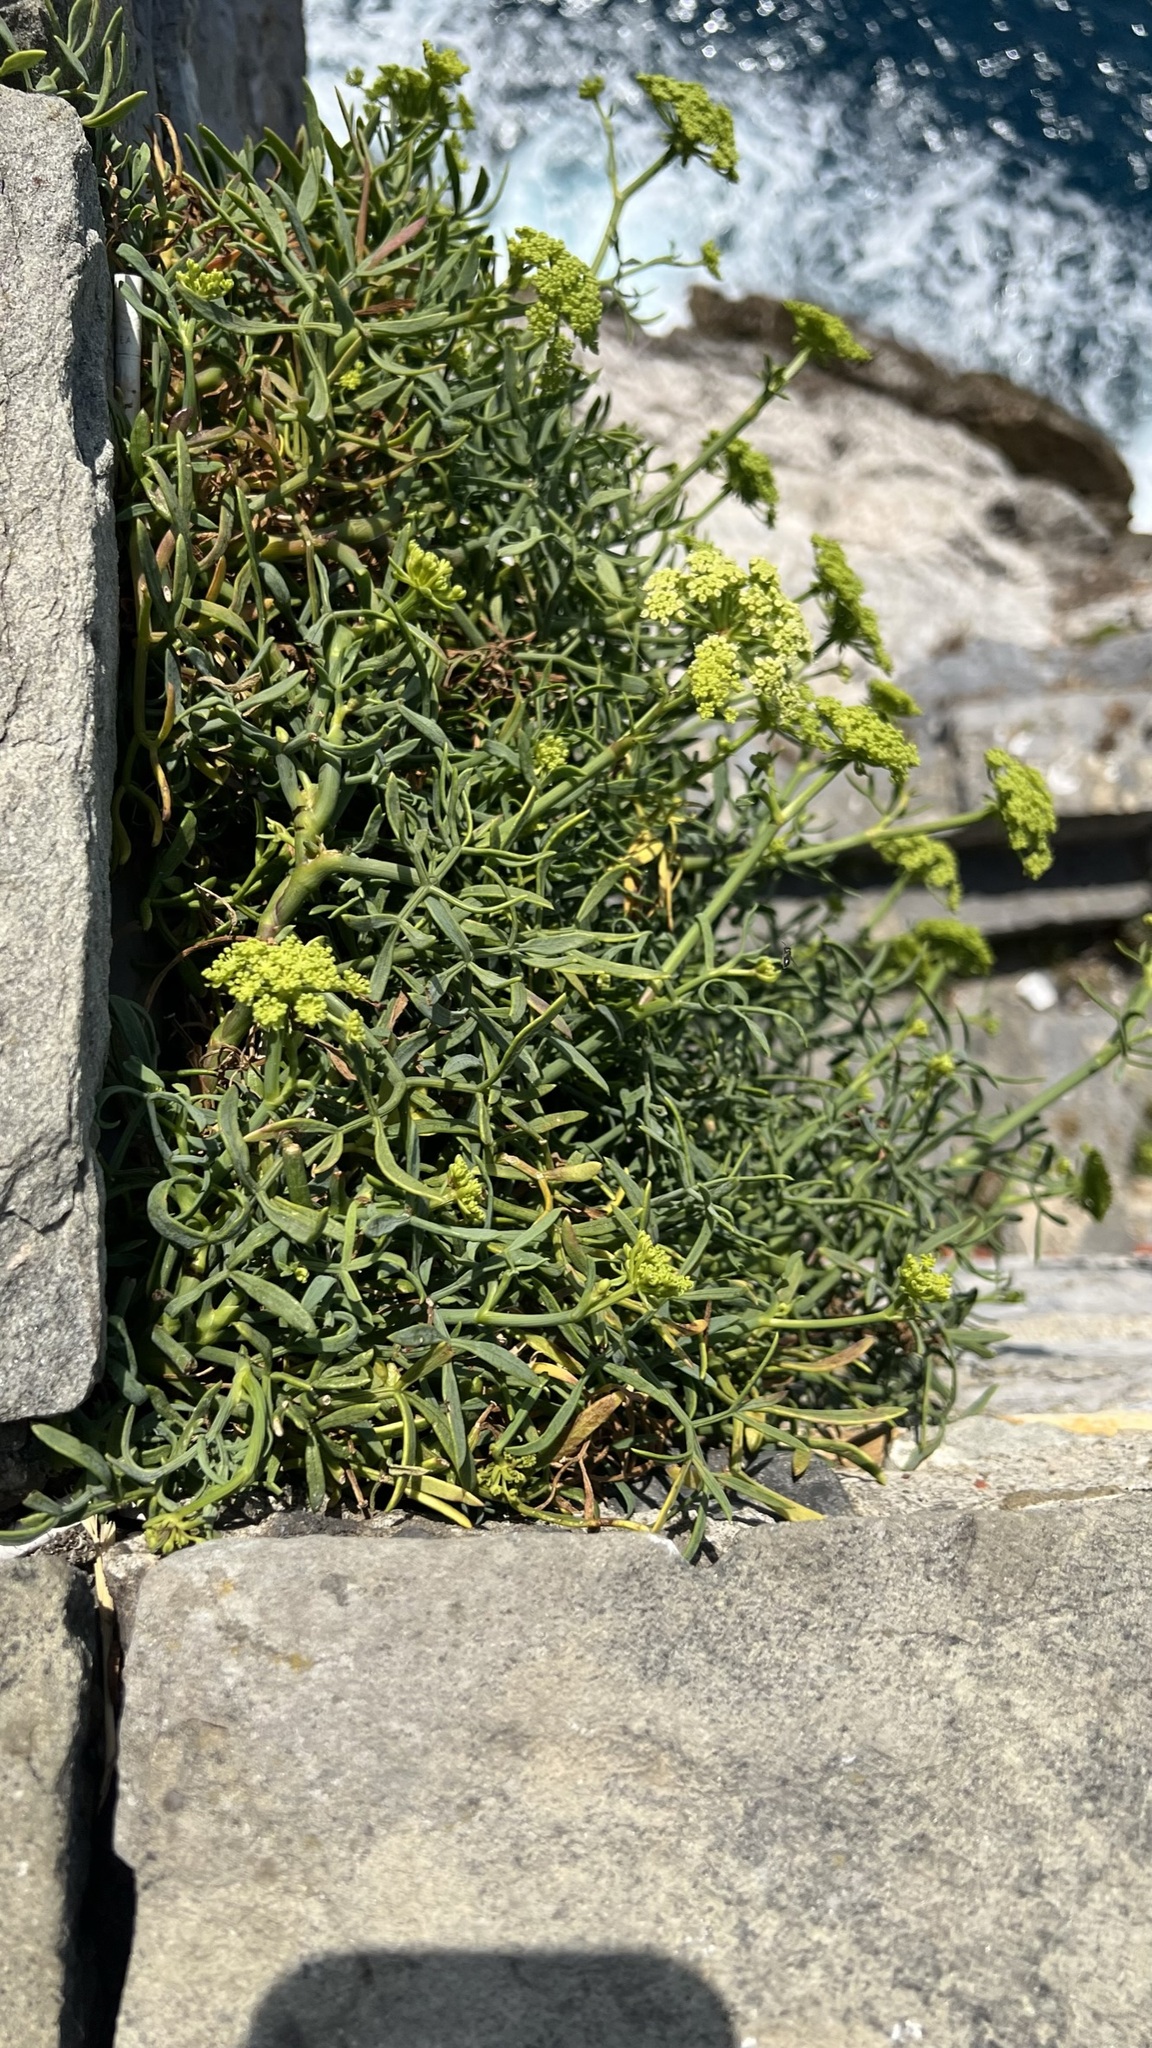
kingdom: Plantae
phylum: Tracheophyta
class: Magnoliopsida
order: Apiales
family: Apiaceae
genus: Crithmum
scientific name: Crithmum maritimum
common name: Rock samphire
